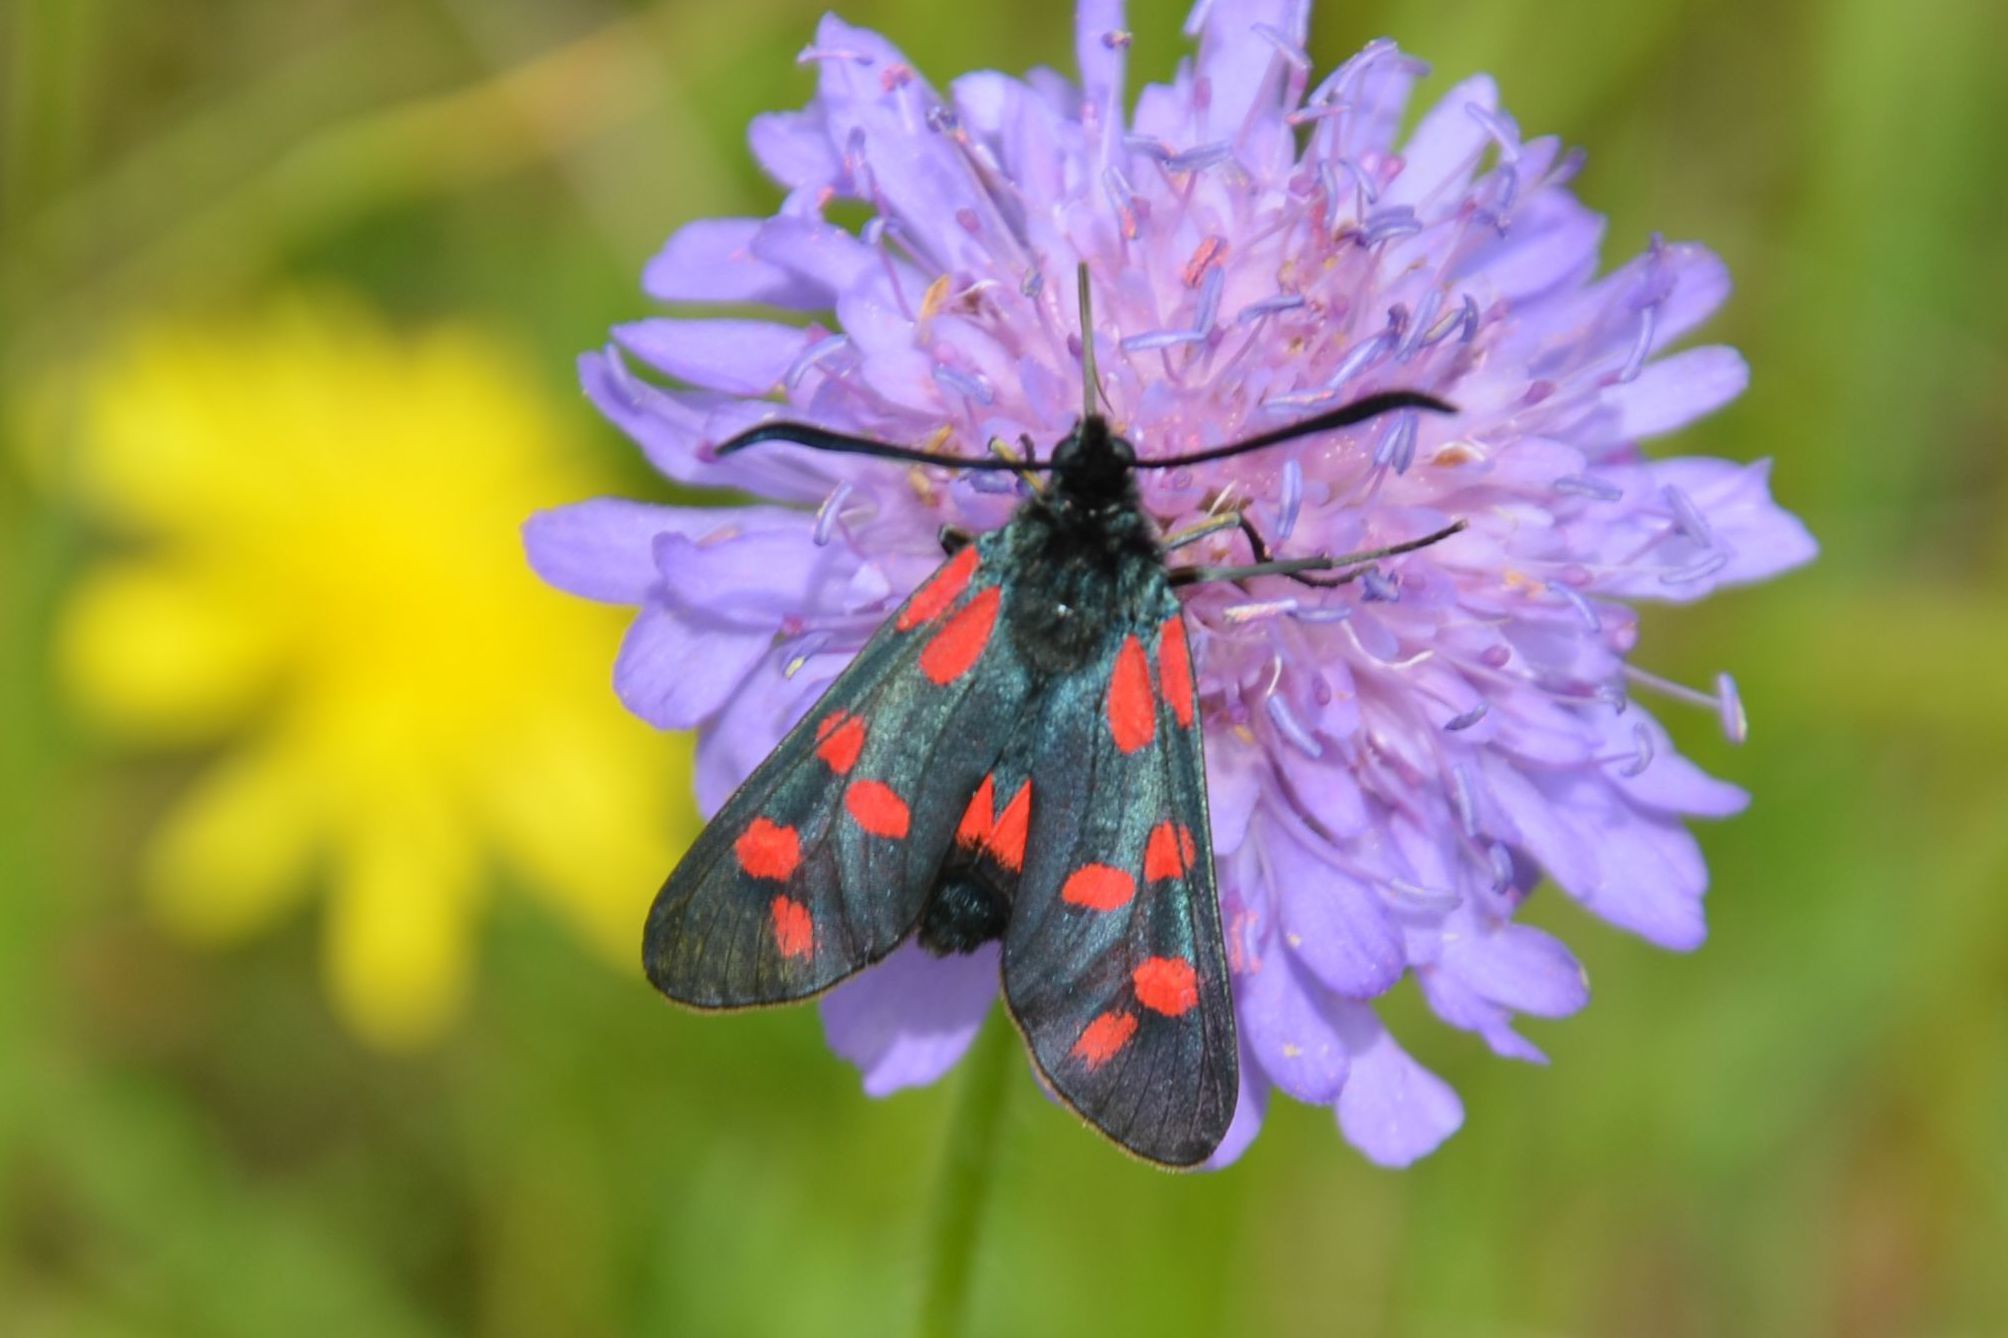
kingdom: Animalia
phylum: Arthropoda
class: Insecta
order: Lepidoptera
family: Zygaenidae
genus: Zygaena
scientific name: Zygaena filipendulae
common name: Six-spot burnet
